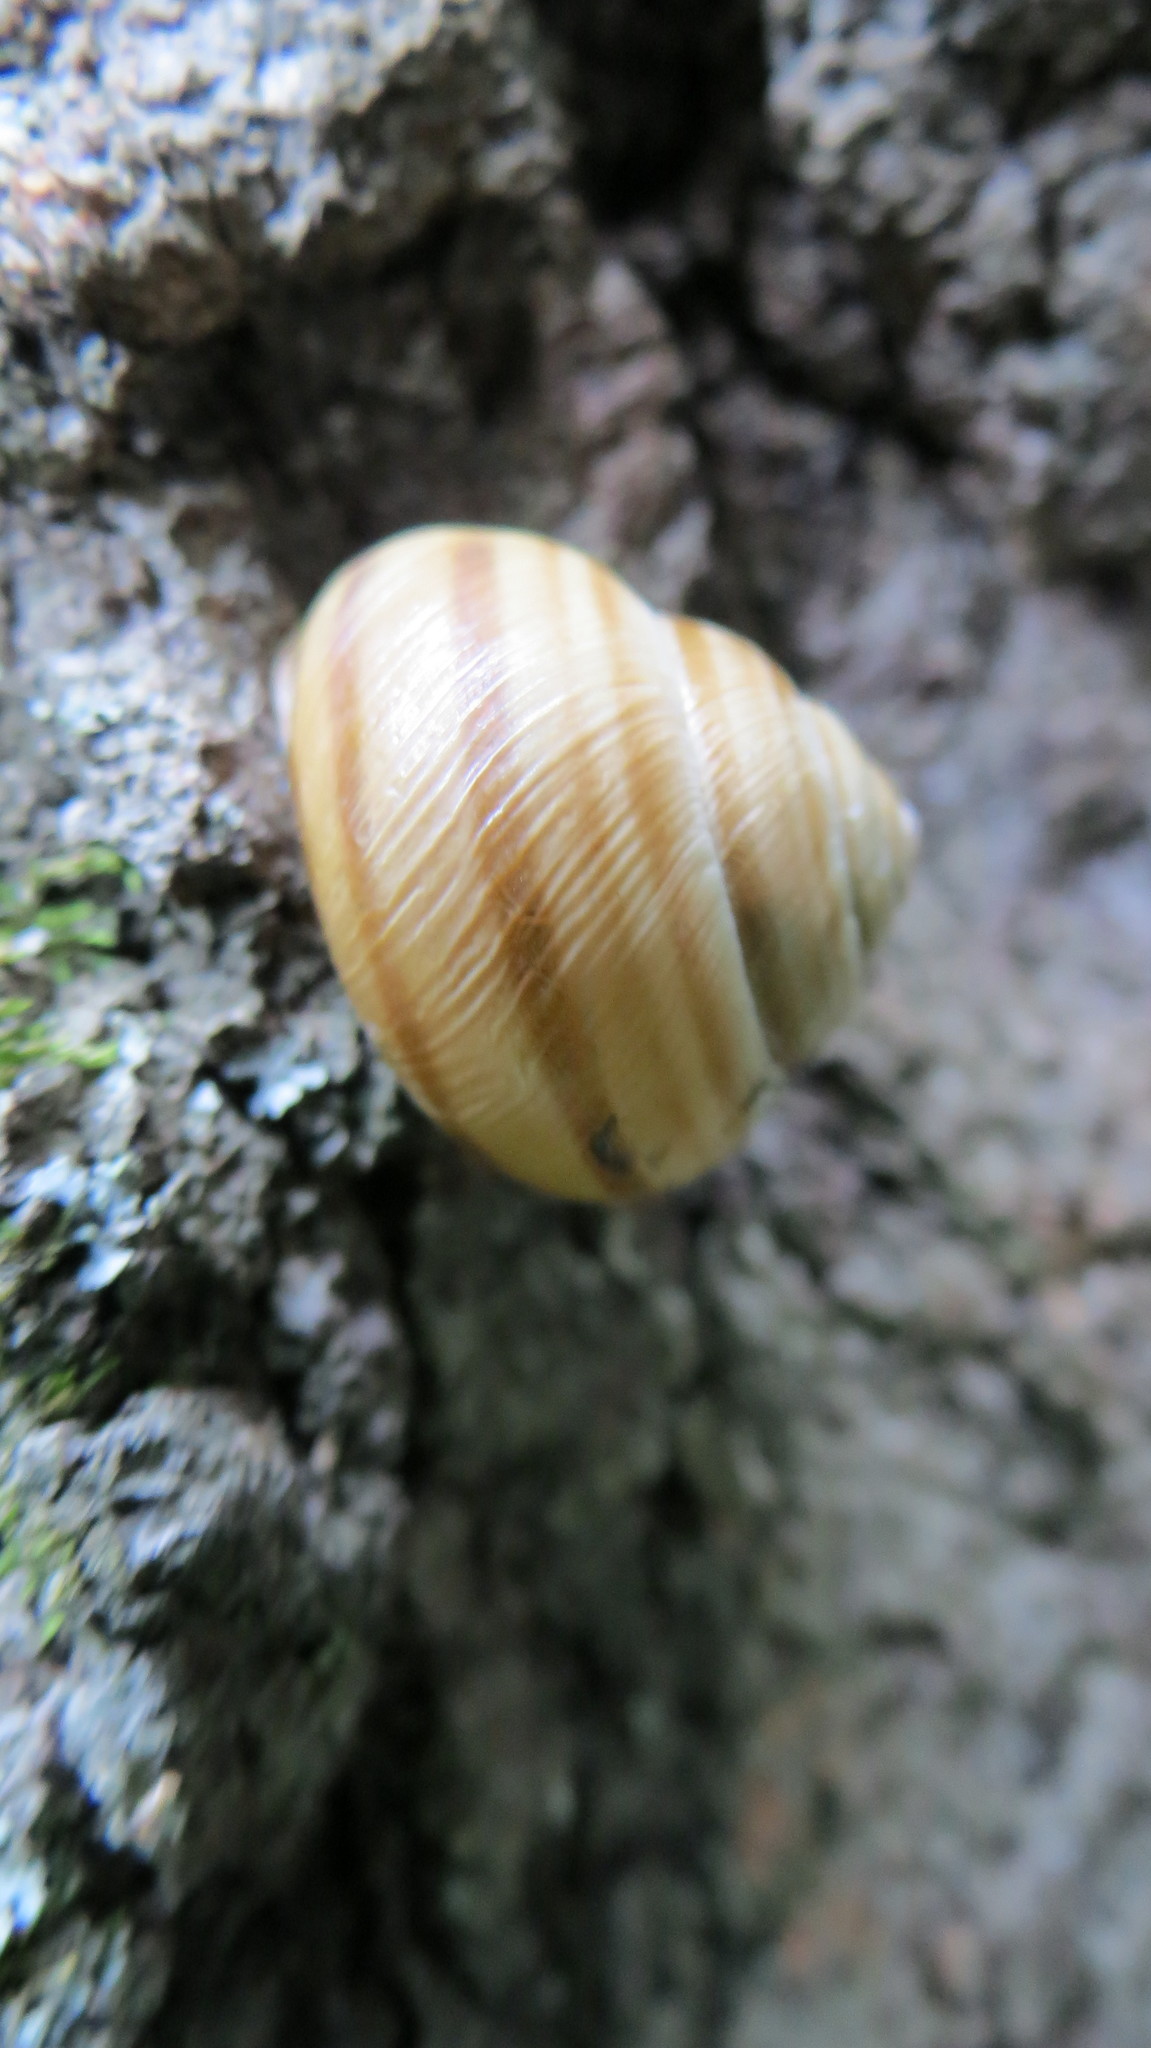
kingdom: Animalia
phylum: Mollusca
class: Gastropoda
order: Stylommatophora
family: Helicidae
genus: Caucasotachea
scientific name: Caucasotachea vindobonensis
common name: European helicid land snail
